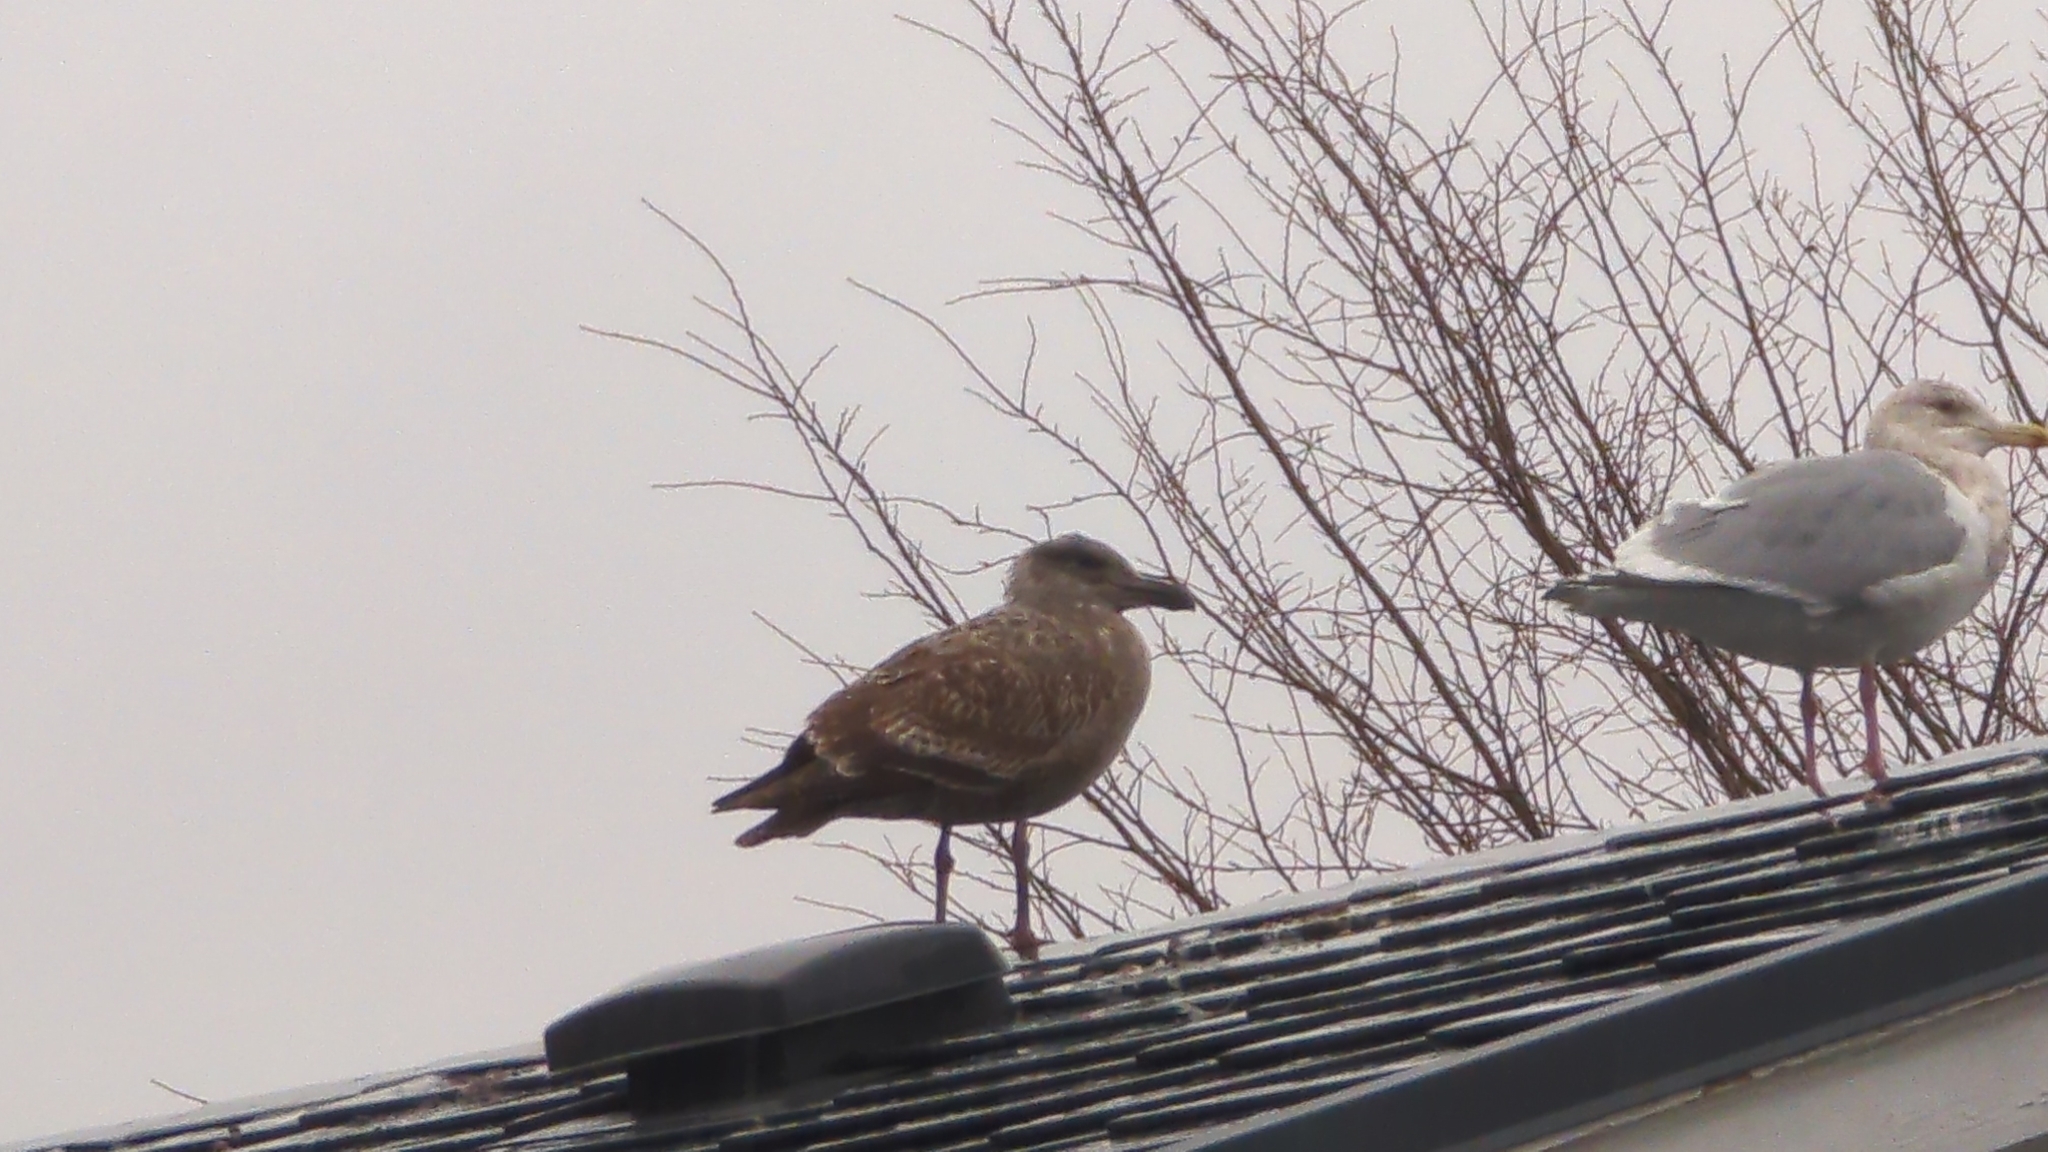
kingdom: Animalia
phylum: Chordata
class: Aves
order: Charadriiformes
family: Laridae
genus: Larus
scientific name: Larus occidentalis
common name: Western gull
